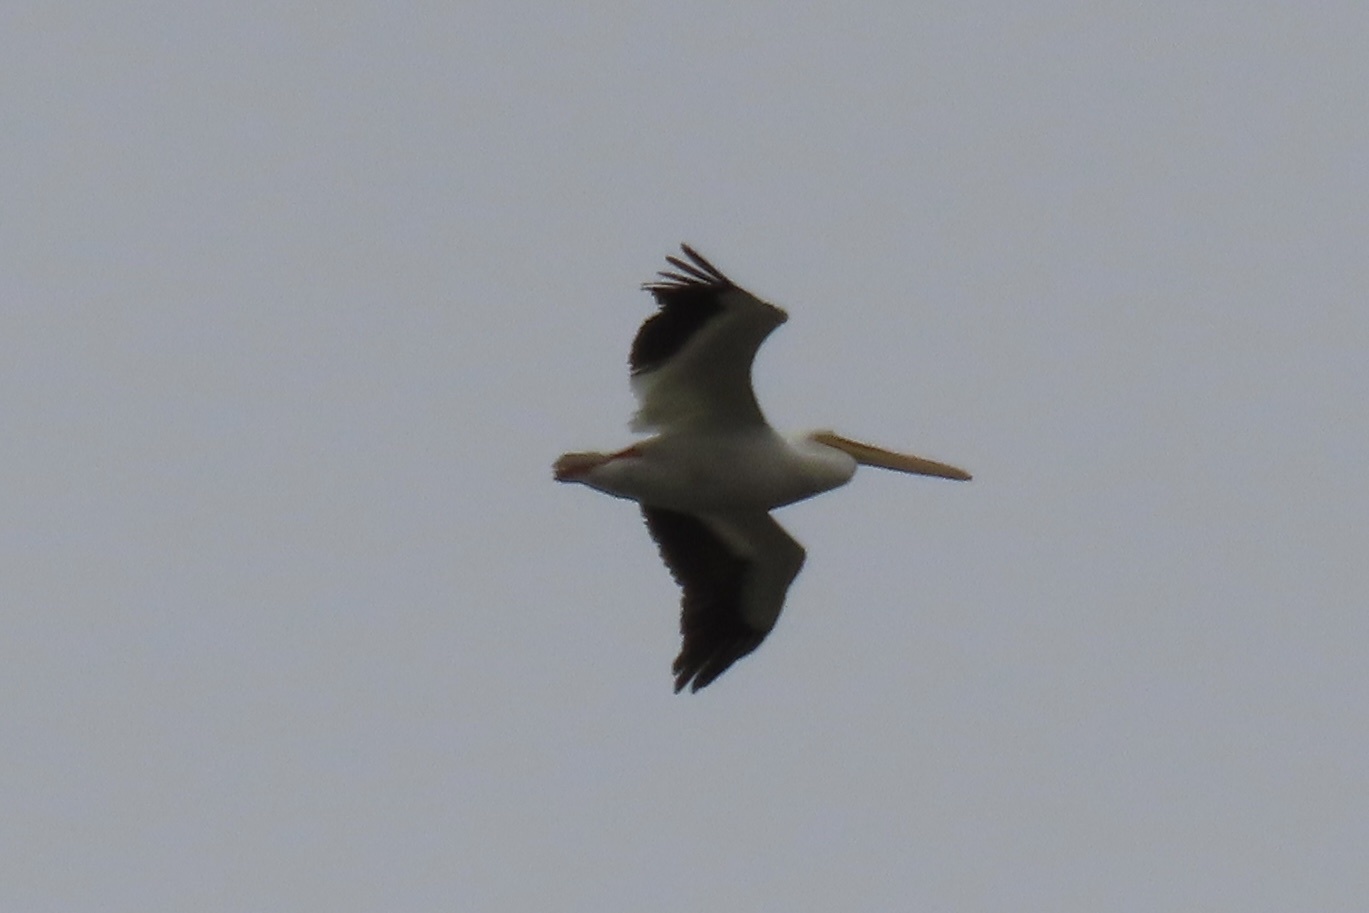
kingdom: Animalia
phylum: Chordata
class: Aves
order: Pelecaniformes
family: Pelecanidae
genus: Pelecanus
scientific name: Pelecanus erythrorhynchos
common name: American white pelican
